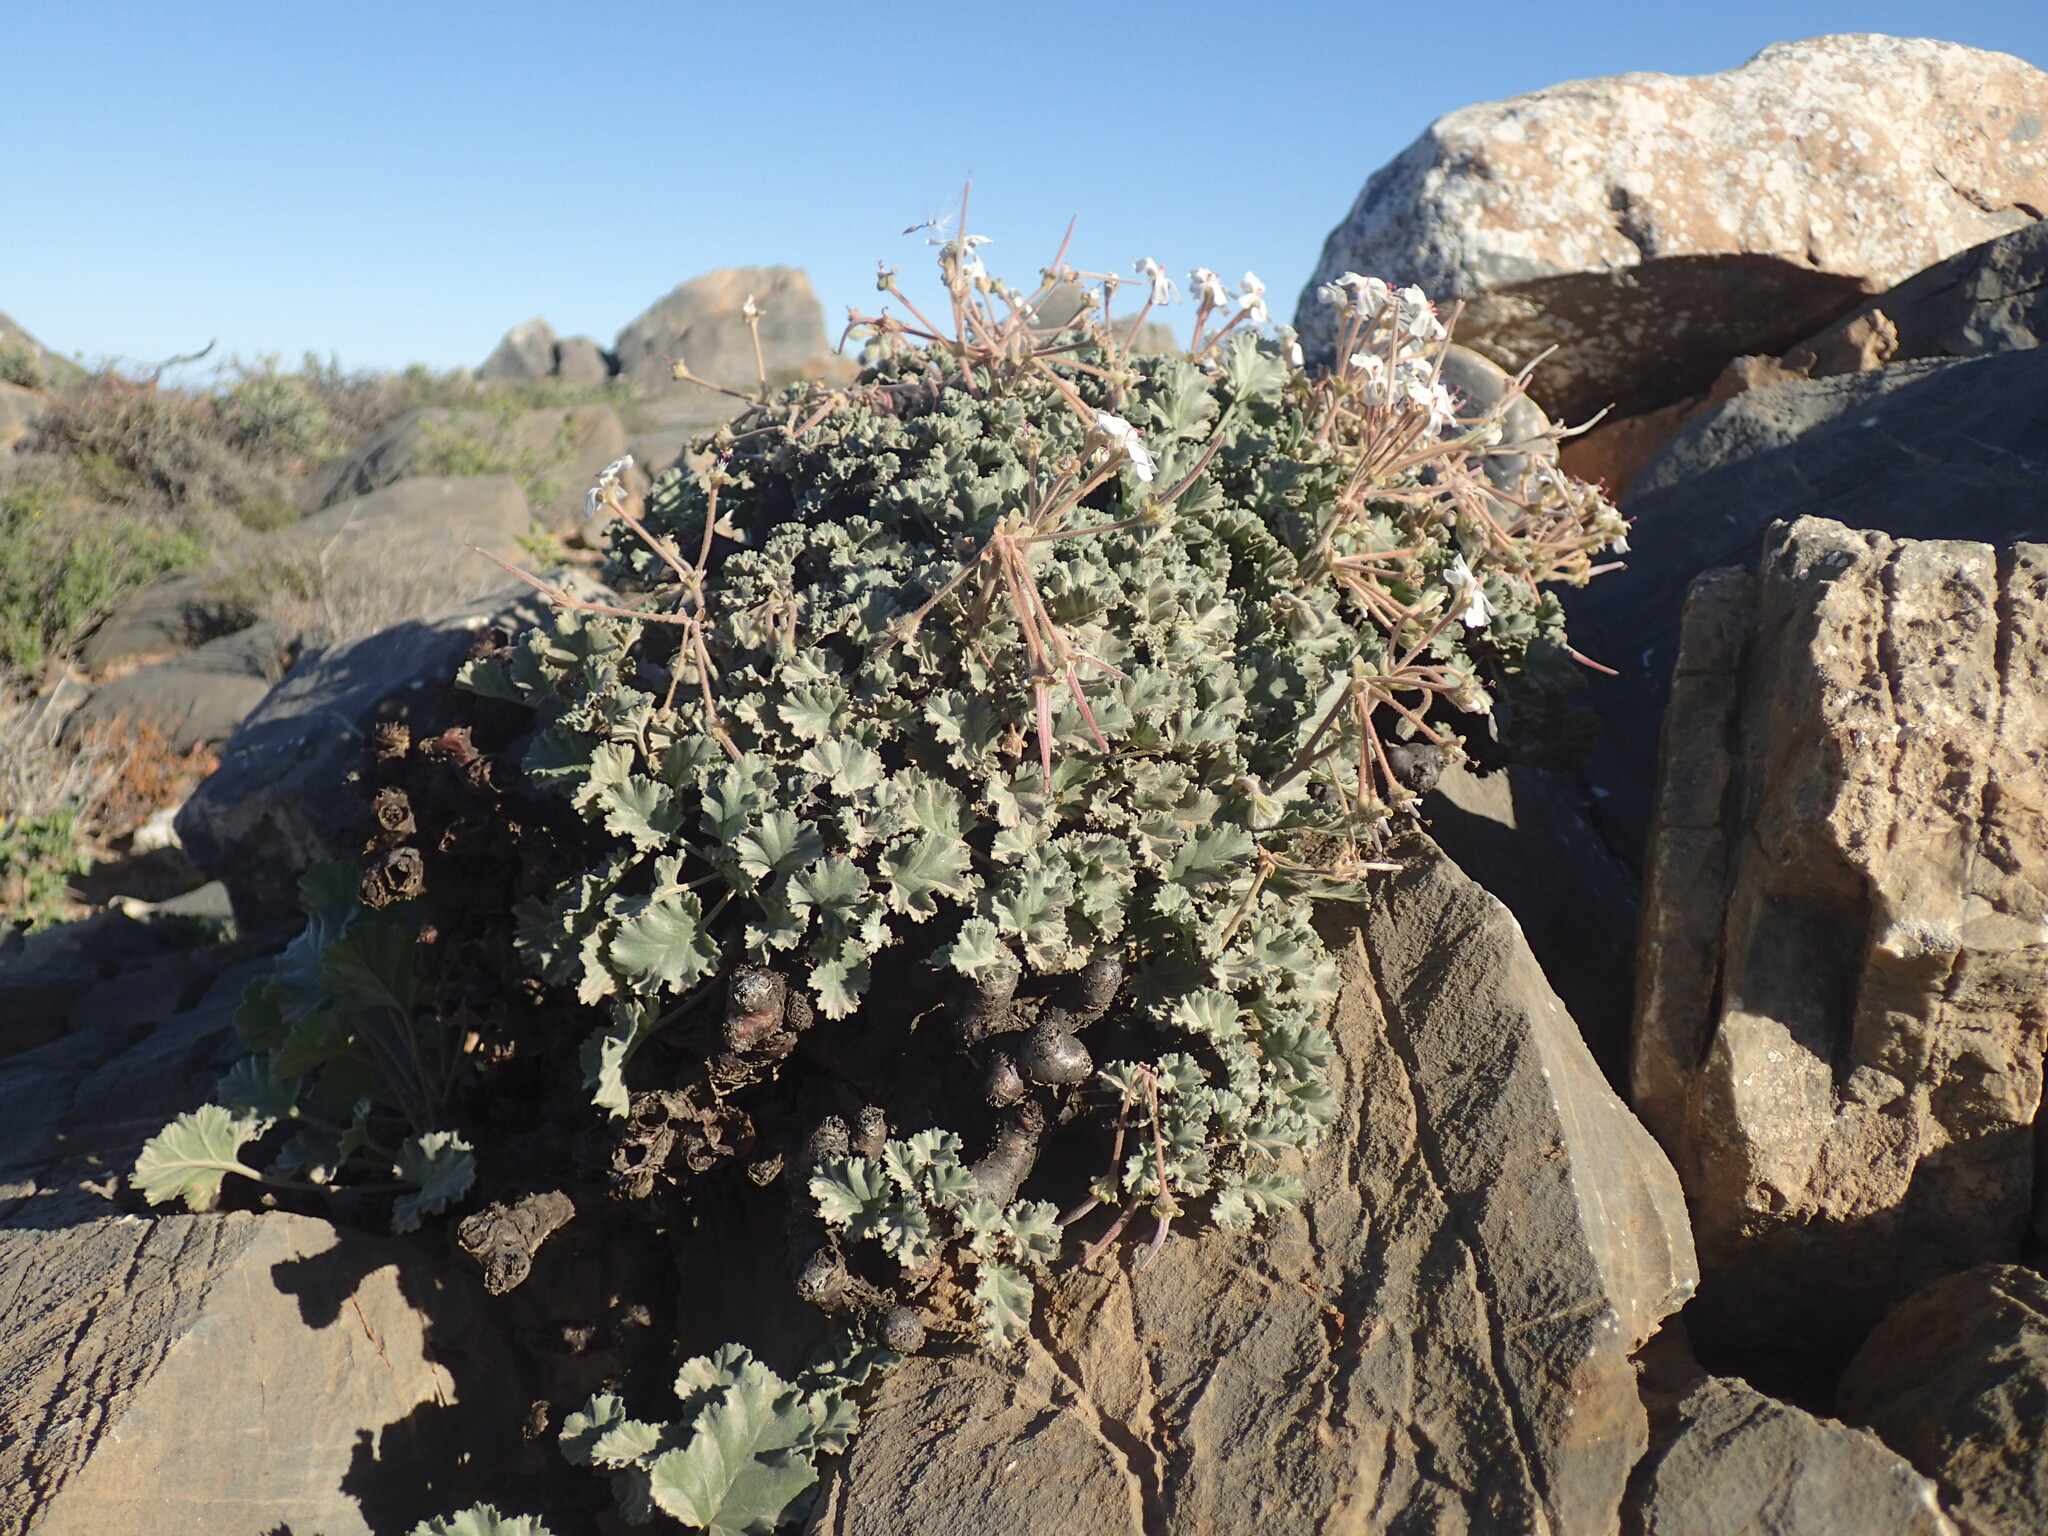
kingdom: Plantae
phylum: Tracheophyta
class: Magnoliopsida
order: Geraniales
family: Geraniaceae
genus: Pelargonium
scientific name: Pelargonium crassicaule
